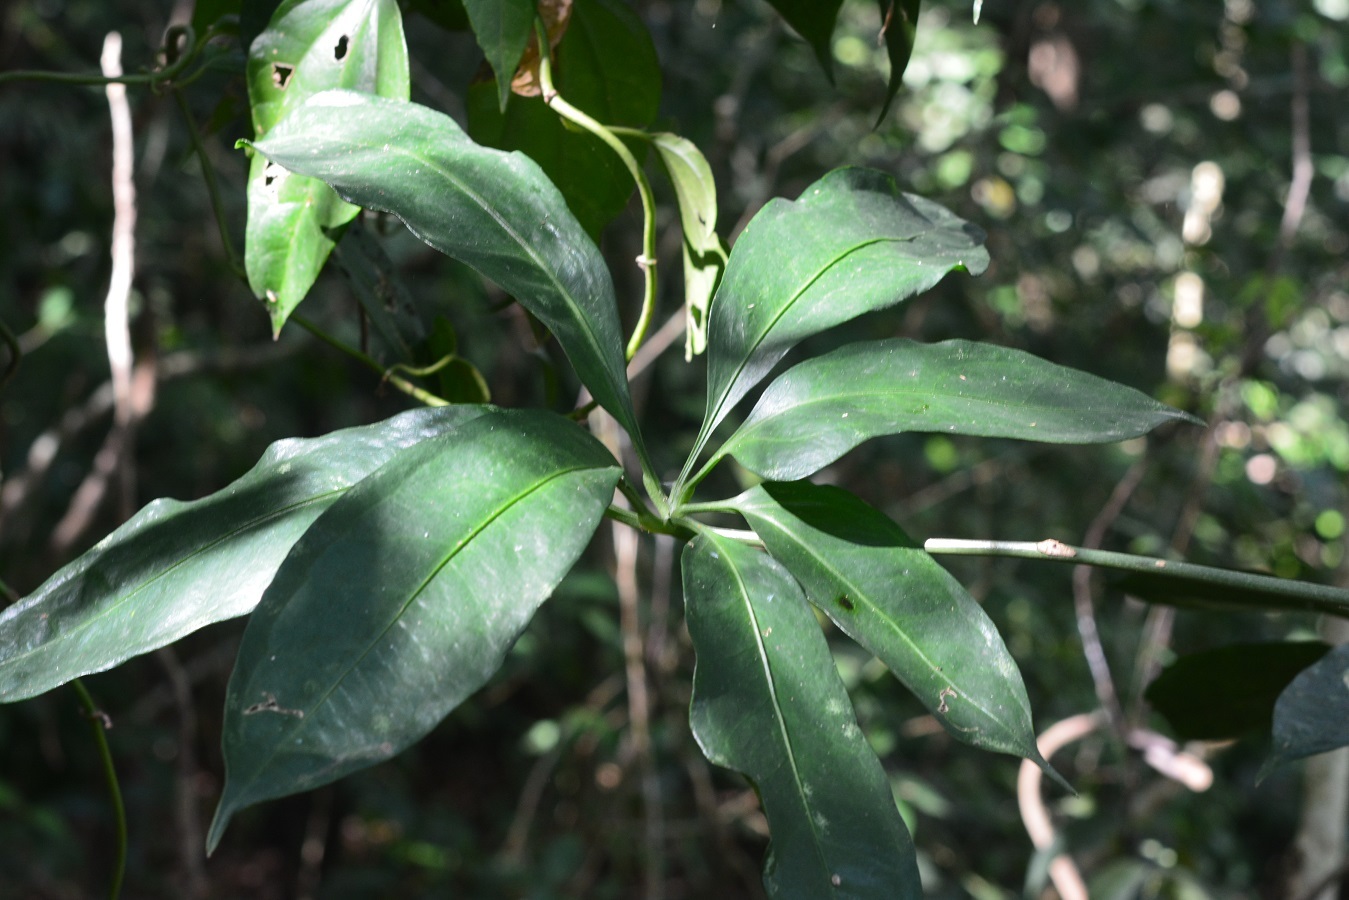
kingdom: Plantae
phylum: Tracheophyta
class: Liliopsida
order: Alismatales
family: Araceae
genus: Anthurium
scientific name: Anthurium pentaphyllum
